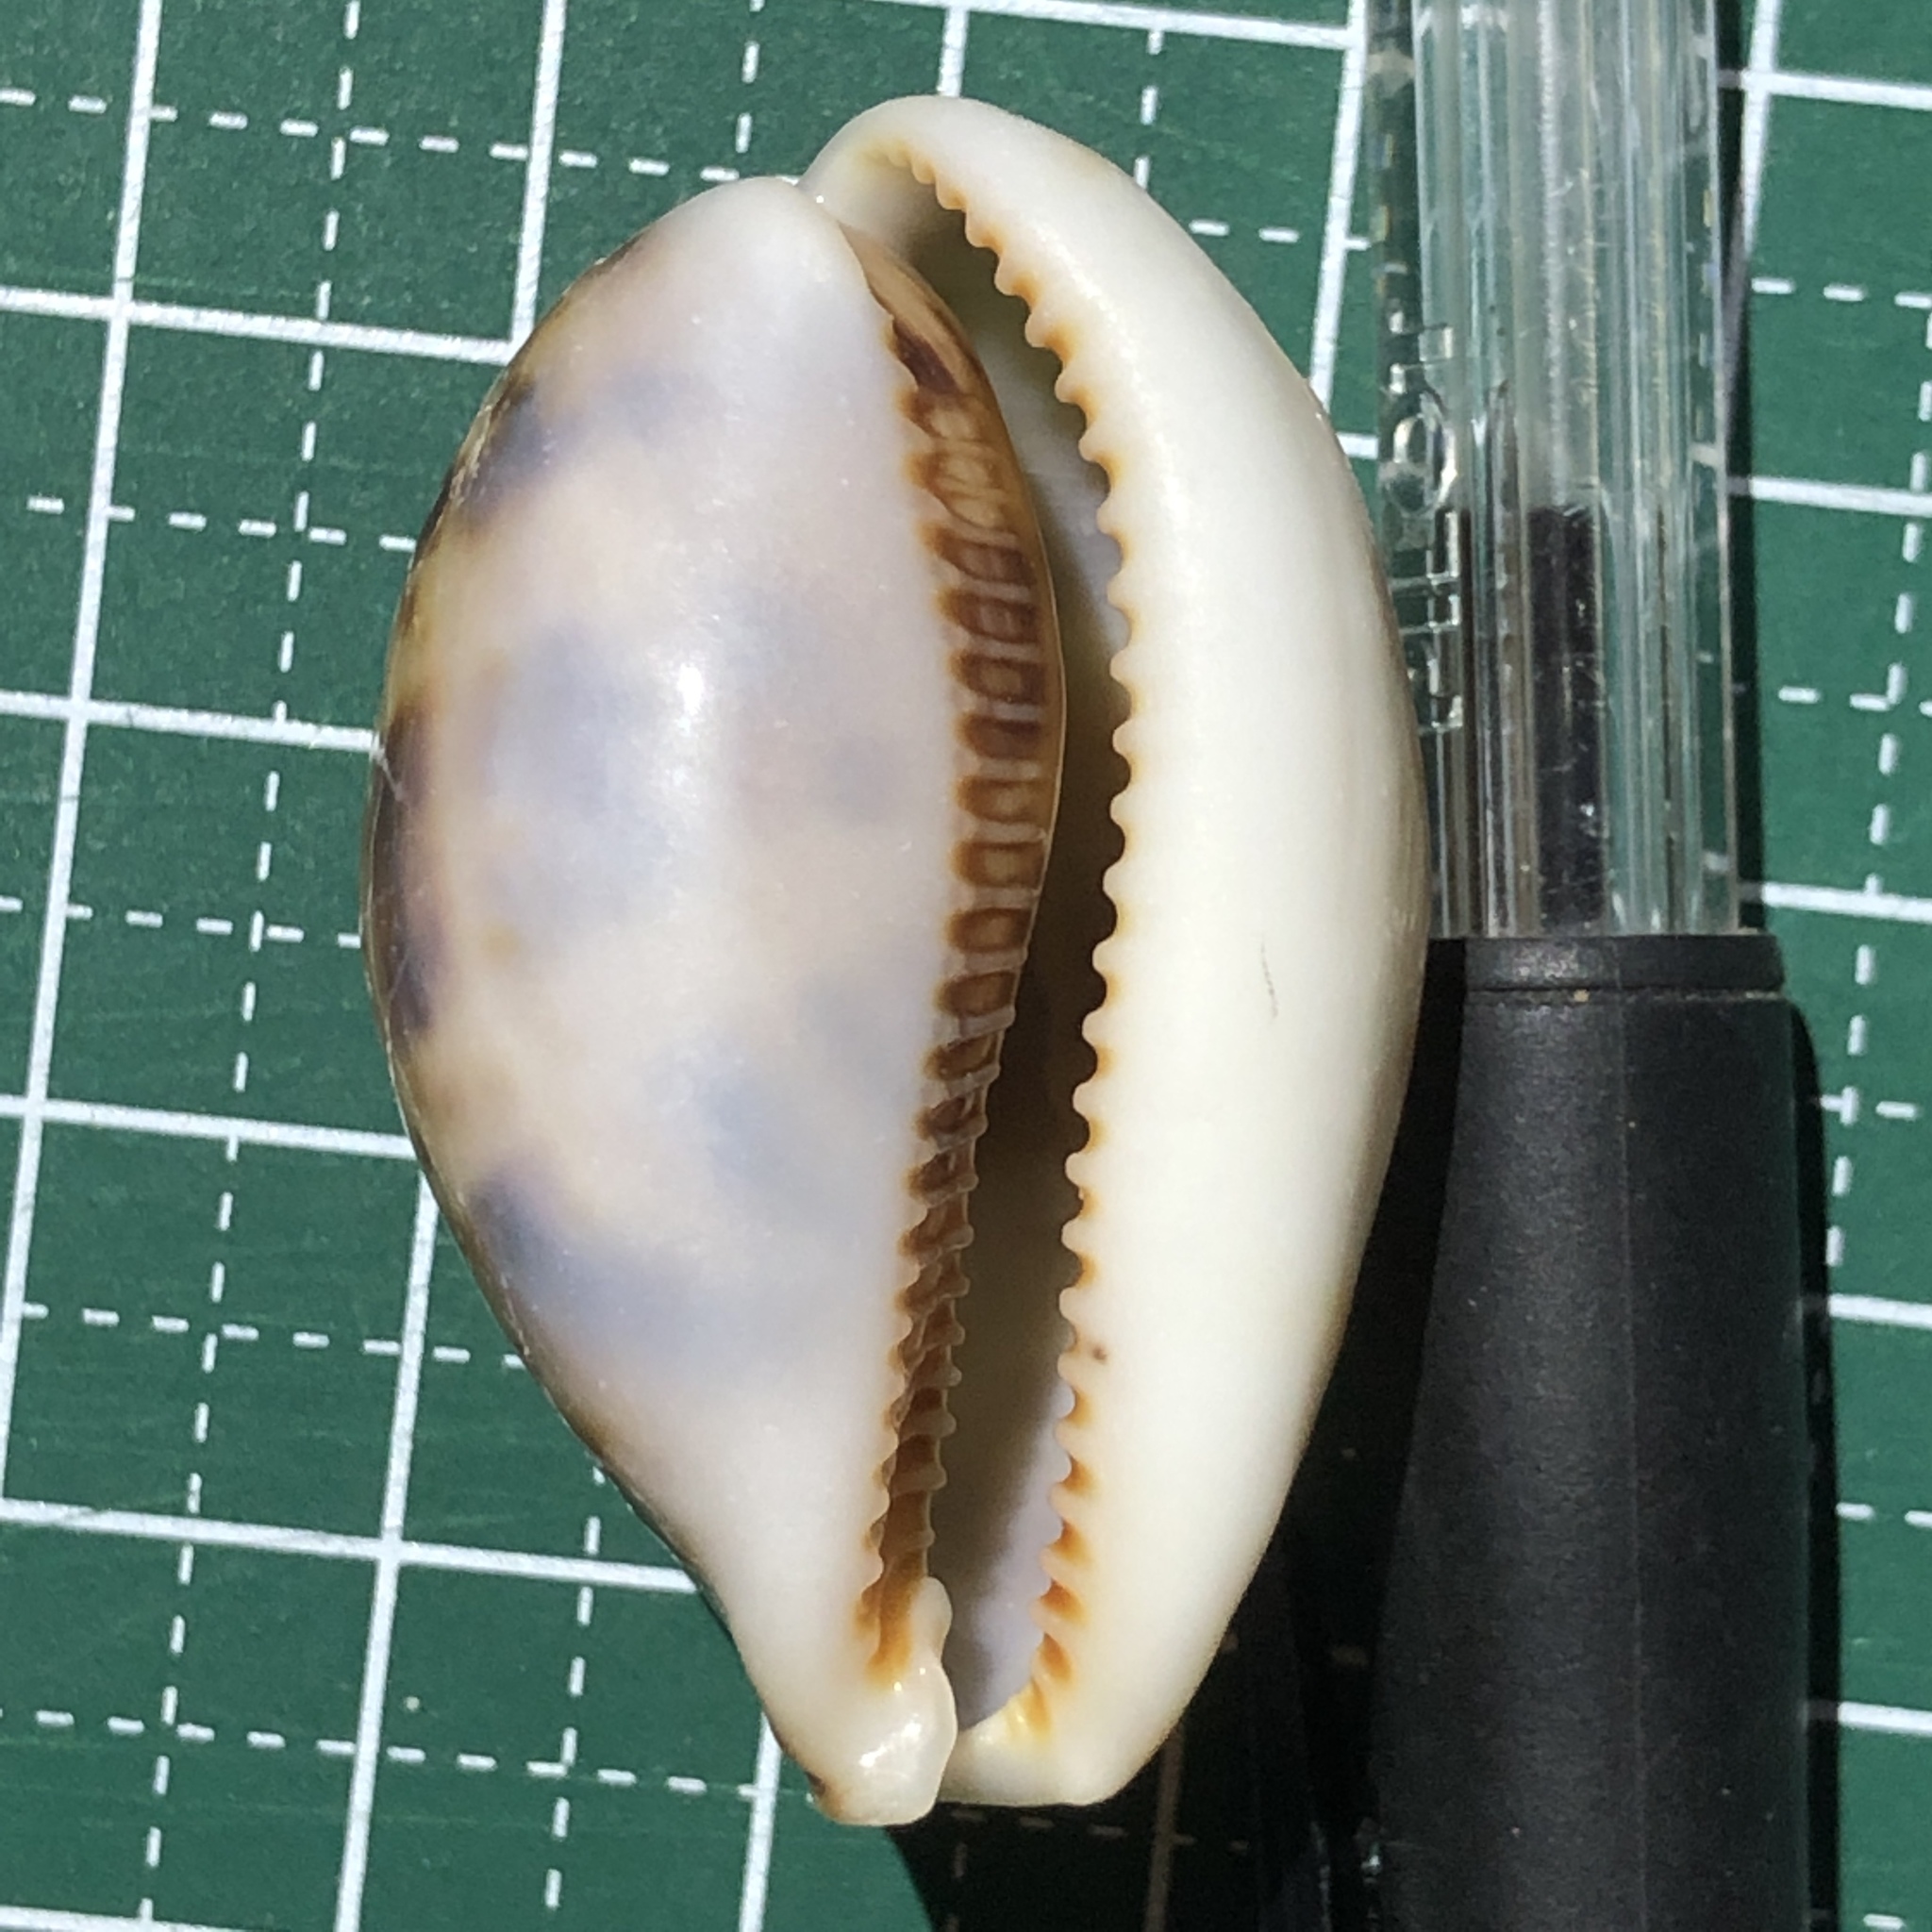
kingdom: Animalia
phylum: Mollusca
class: Gastropoda
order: Littorinimorpha
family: Cypraeidae
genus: Lyncina
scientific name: Lyncina lynx
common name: Bobcat cowrie
